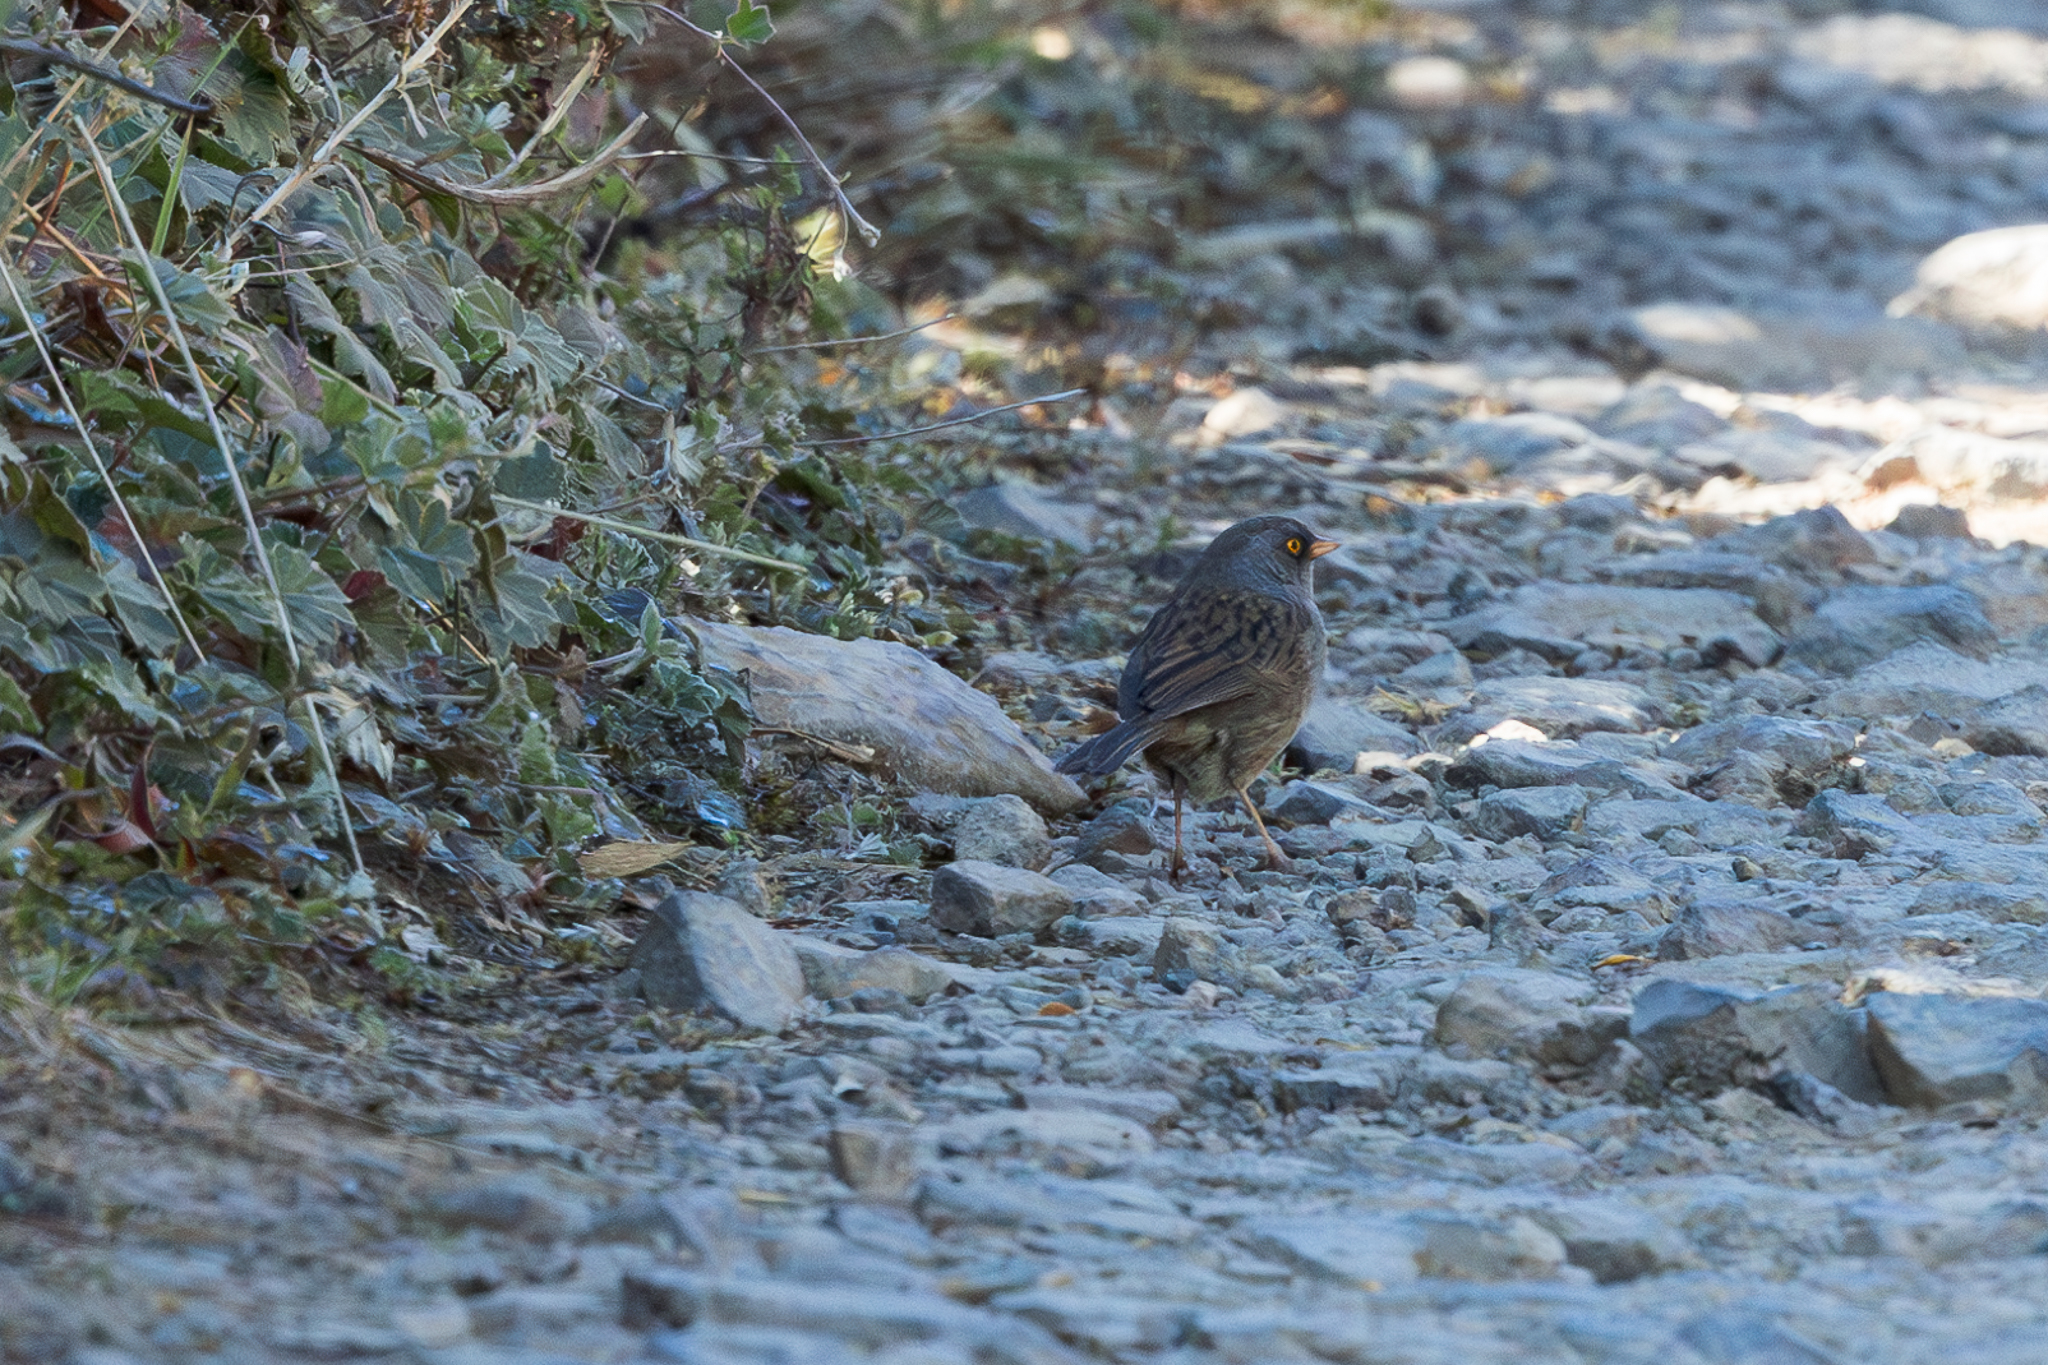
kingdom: Animalia
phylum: Chordata
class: Aves
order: Passeriformes
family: Passerellidae
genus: Junco
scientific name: Junco vulcani
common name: Volcano junco
